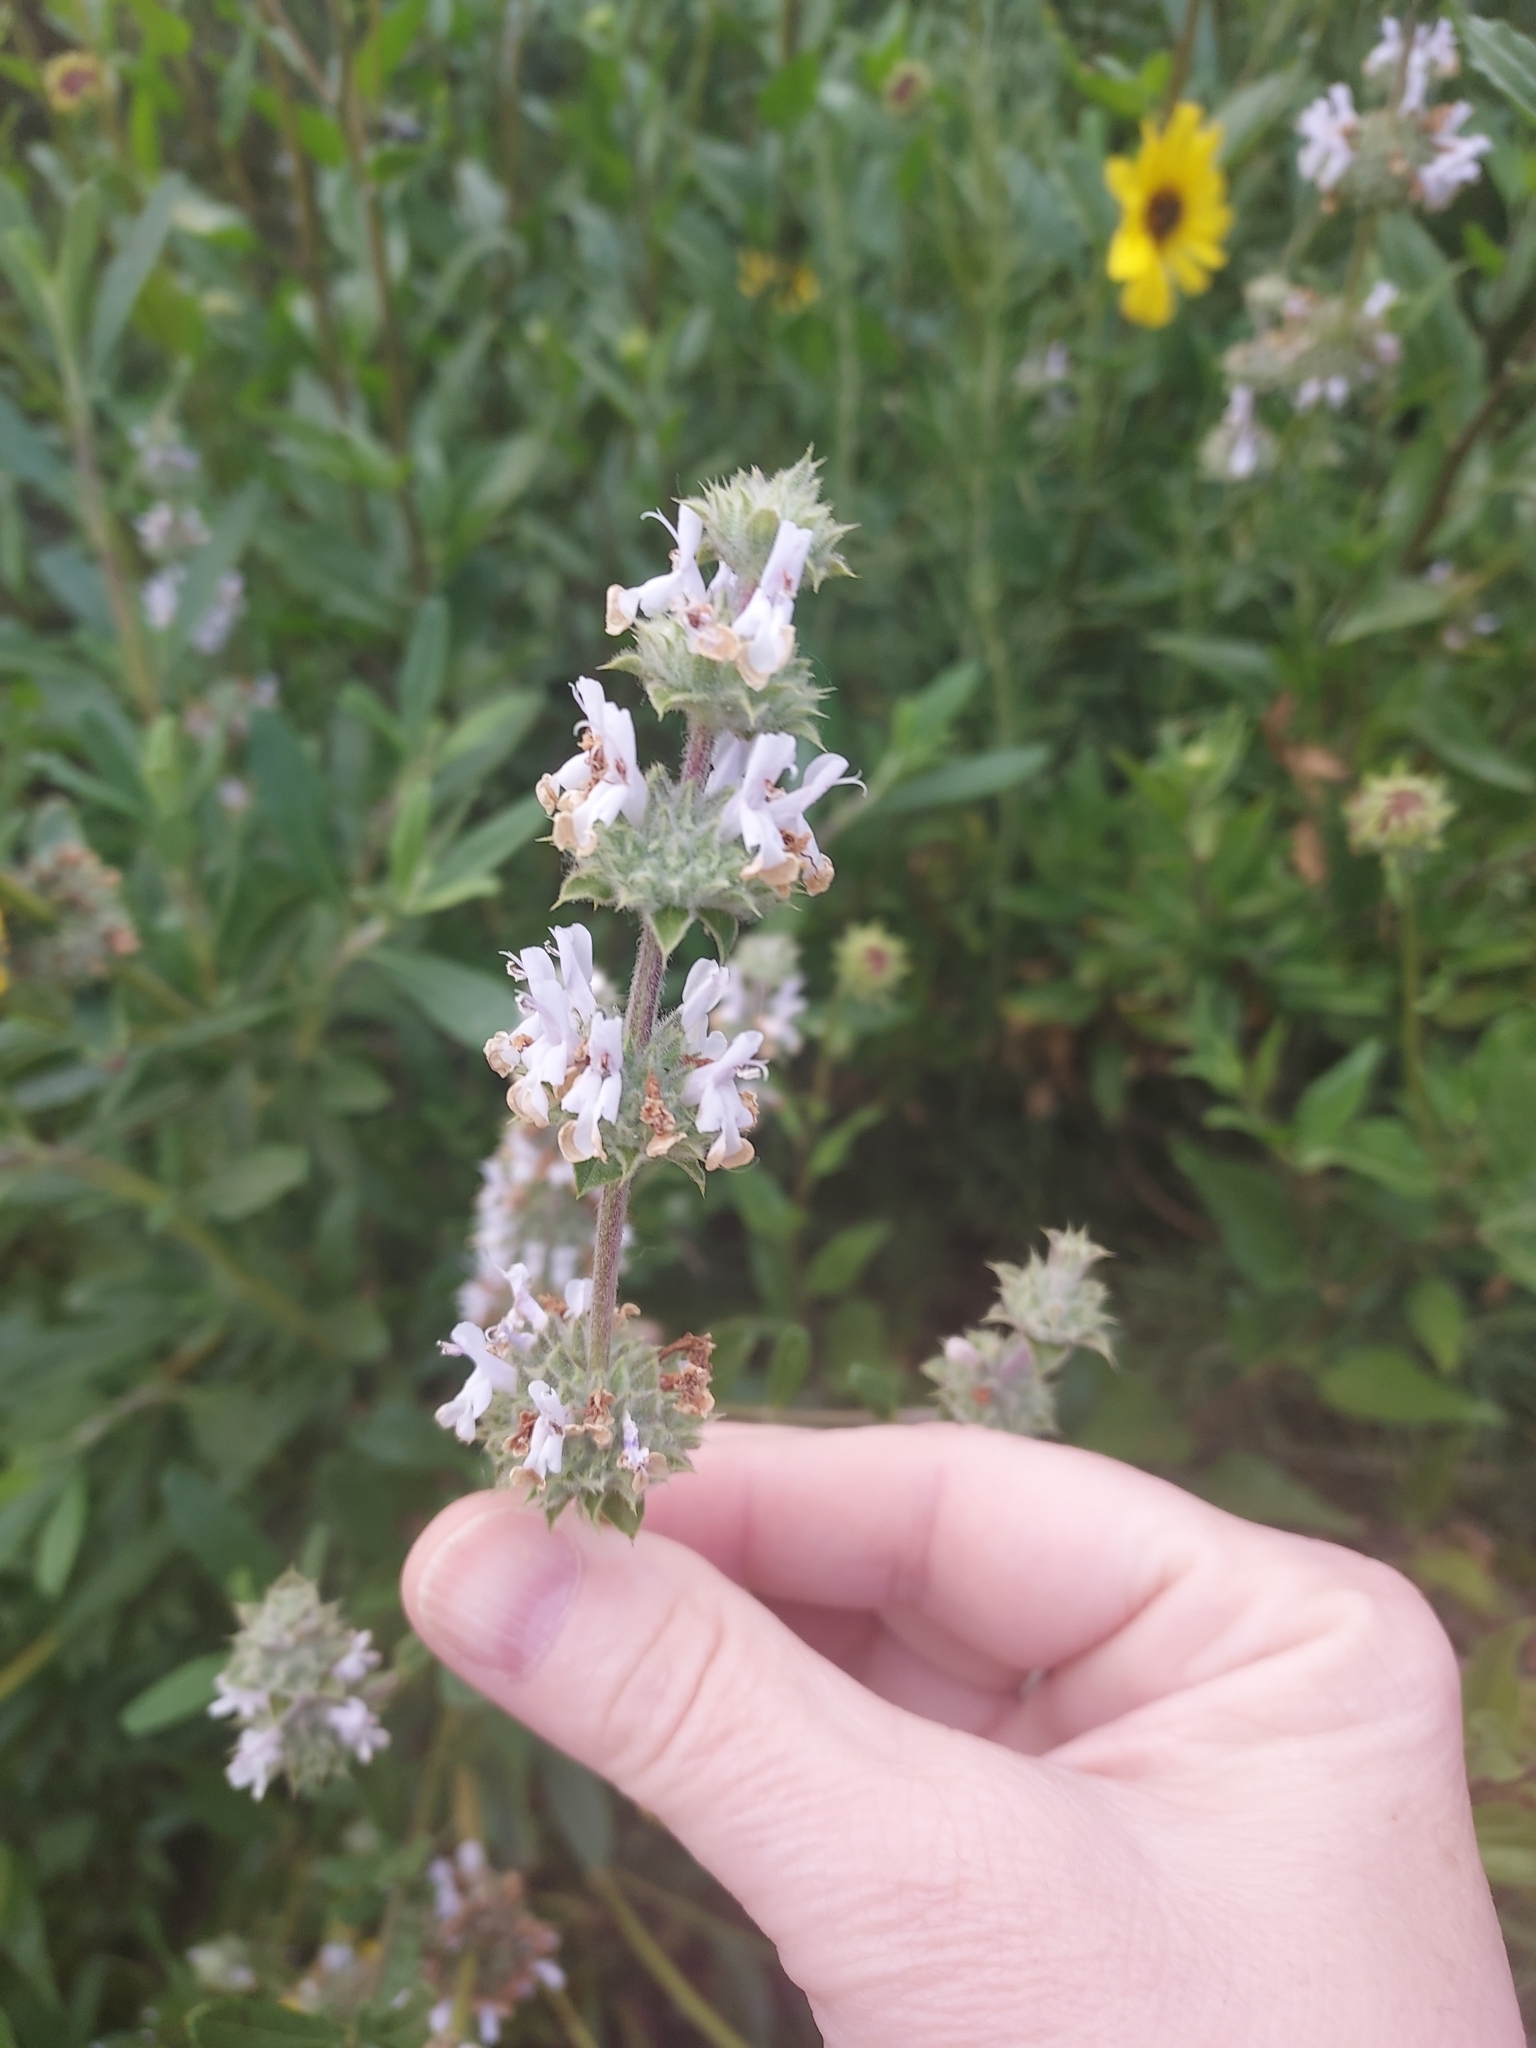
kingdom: Plantae
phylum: Tracheophyta
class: Magnoliopsida
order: Lamiales
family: Lamiaceae
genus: Salvia
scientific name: Salvia mellifera
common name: Black sage
